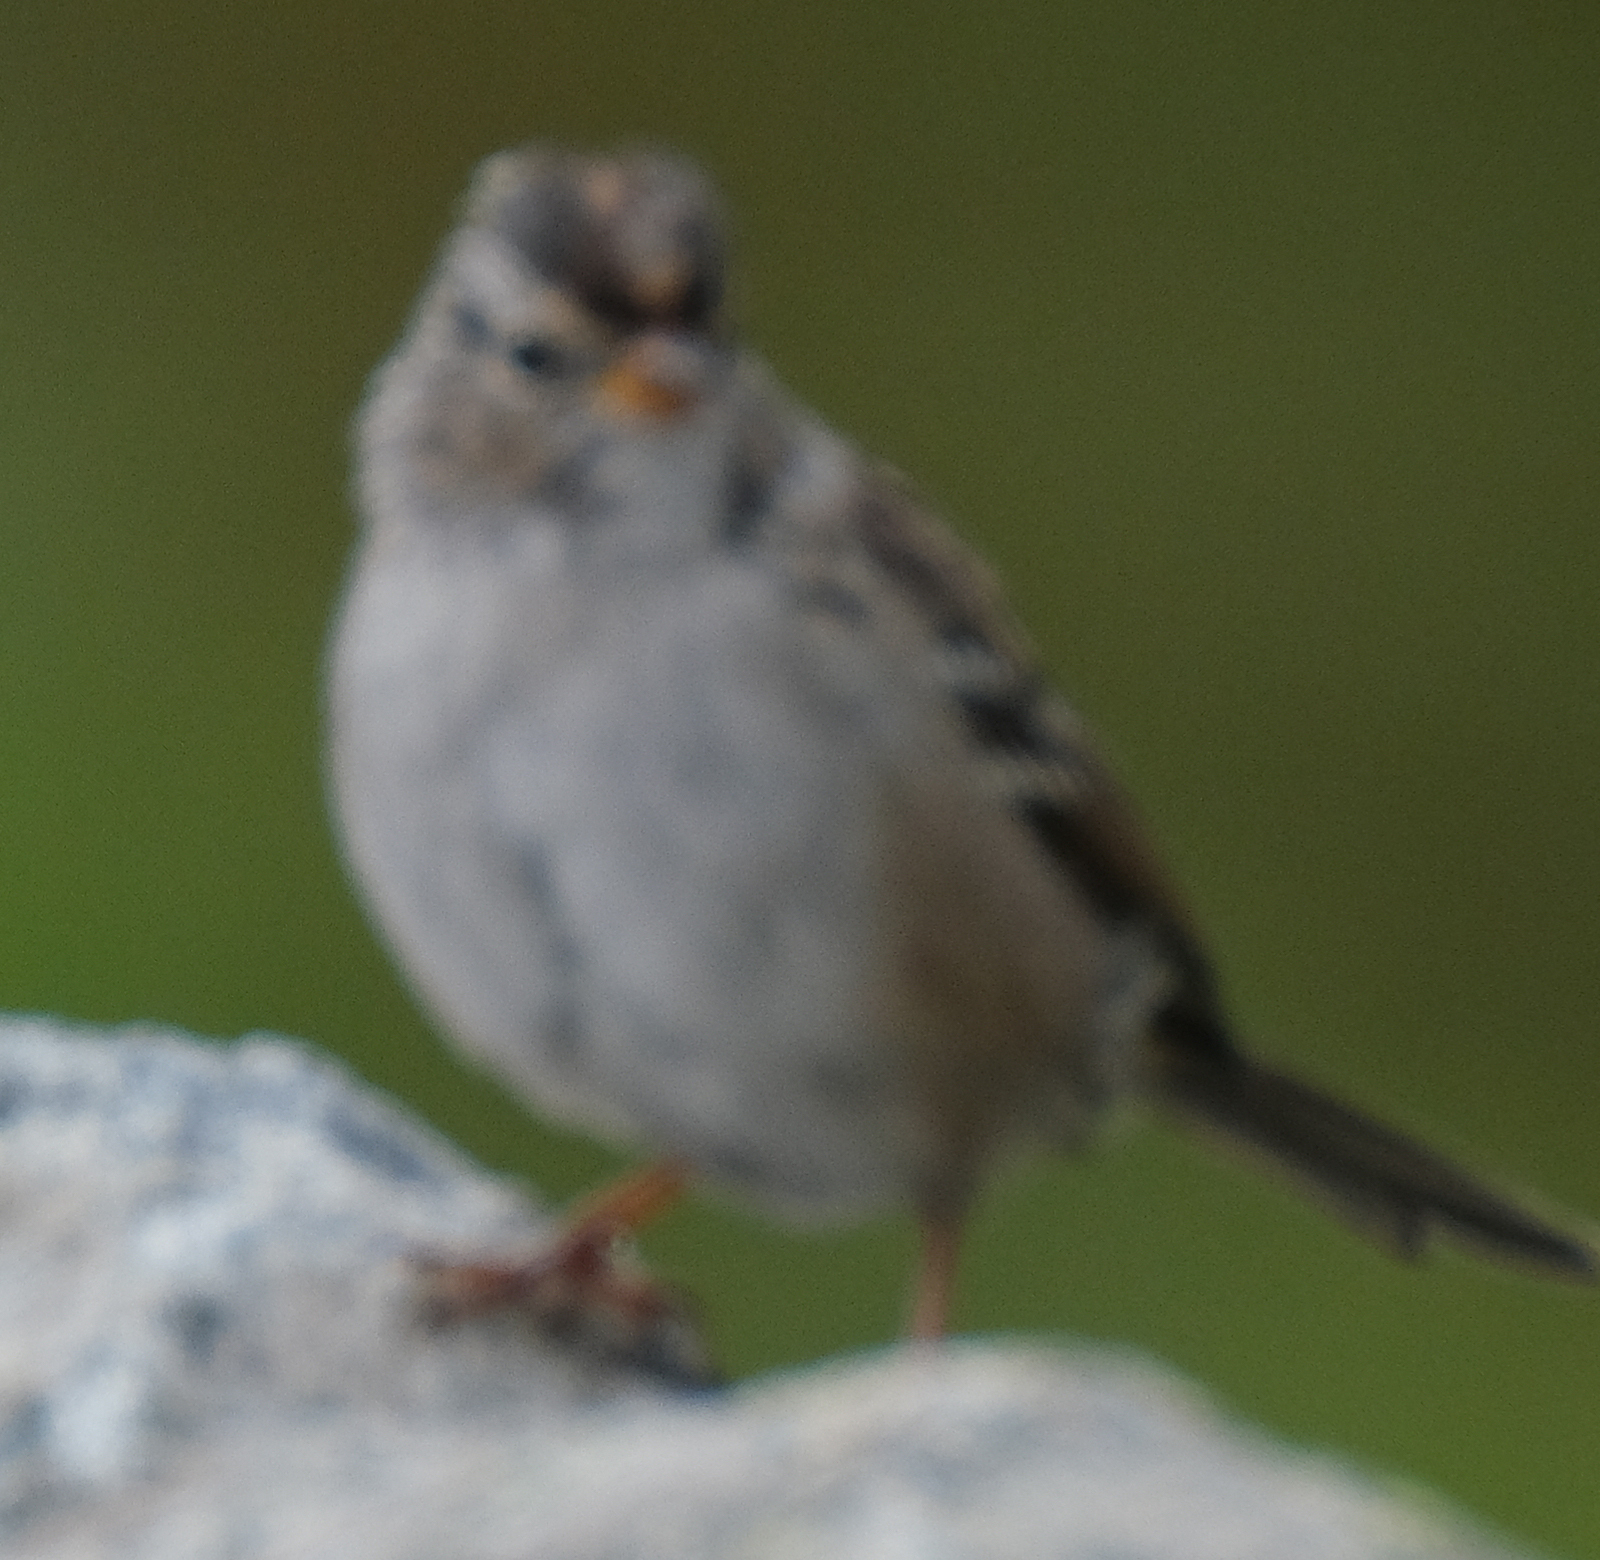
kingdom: Animalia
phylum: Chordata
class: Aves
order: Passeriformes
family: Passerellidae
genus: Zonotrichia
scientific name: Zonotrichia leucophrys
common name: White-crowned sparrow
